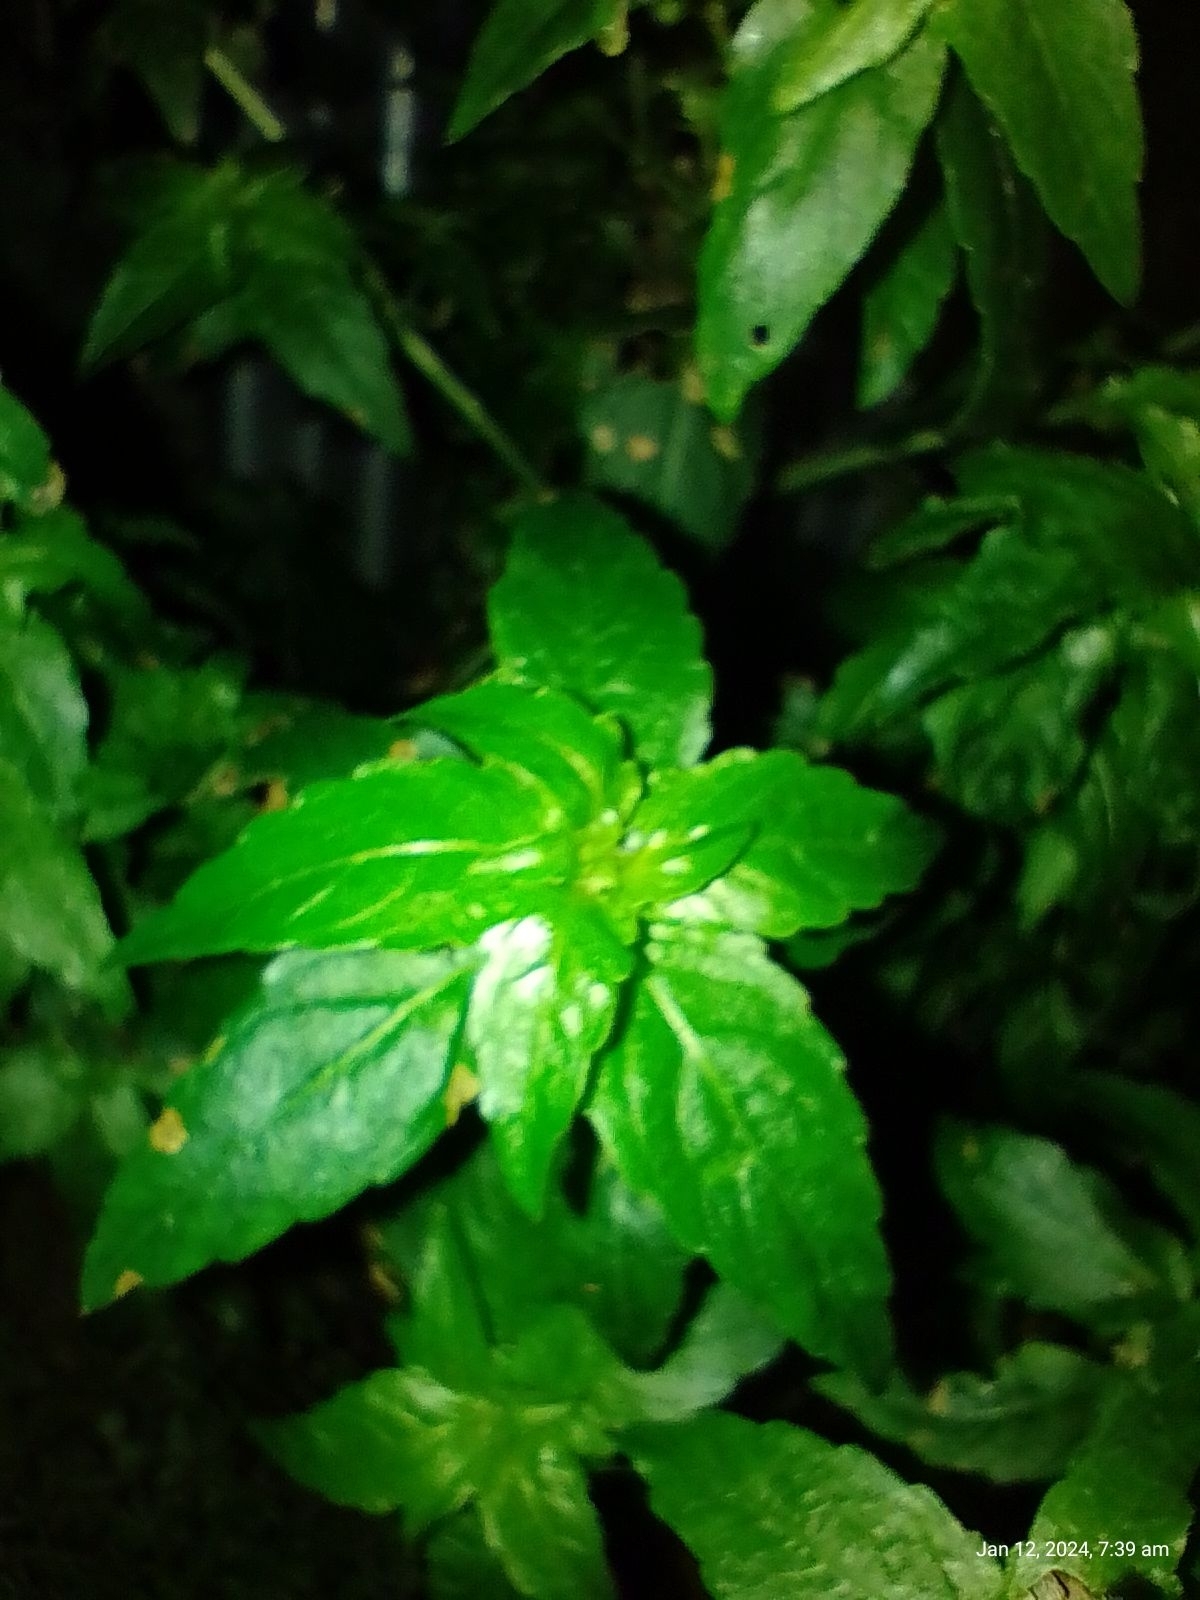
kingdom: Plantae
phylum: Tracheophyta
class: Magnoliopsida
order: Malpighiales
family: Euphorbiaceae
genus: Mercurialis
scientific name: Mercurialis annua
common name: Annual mercury
